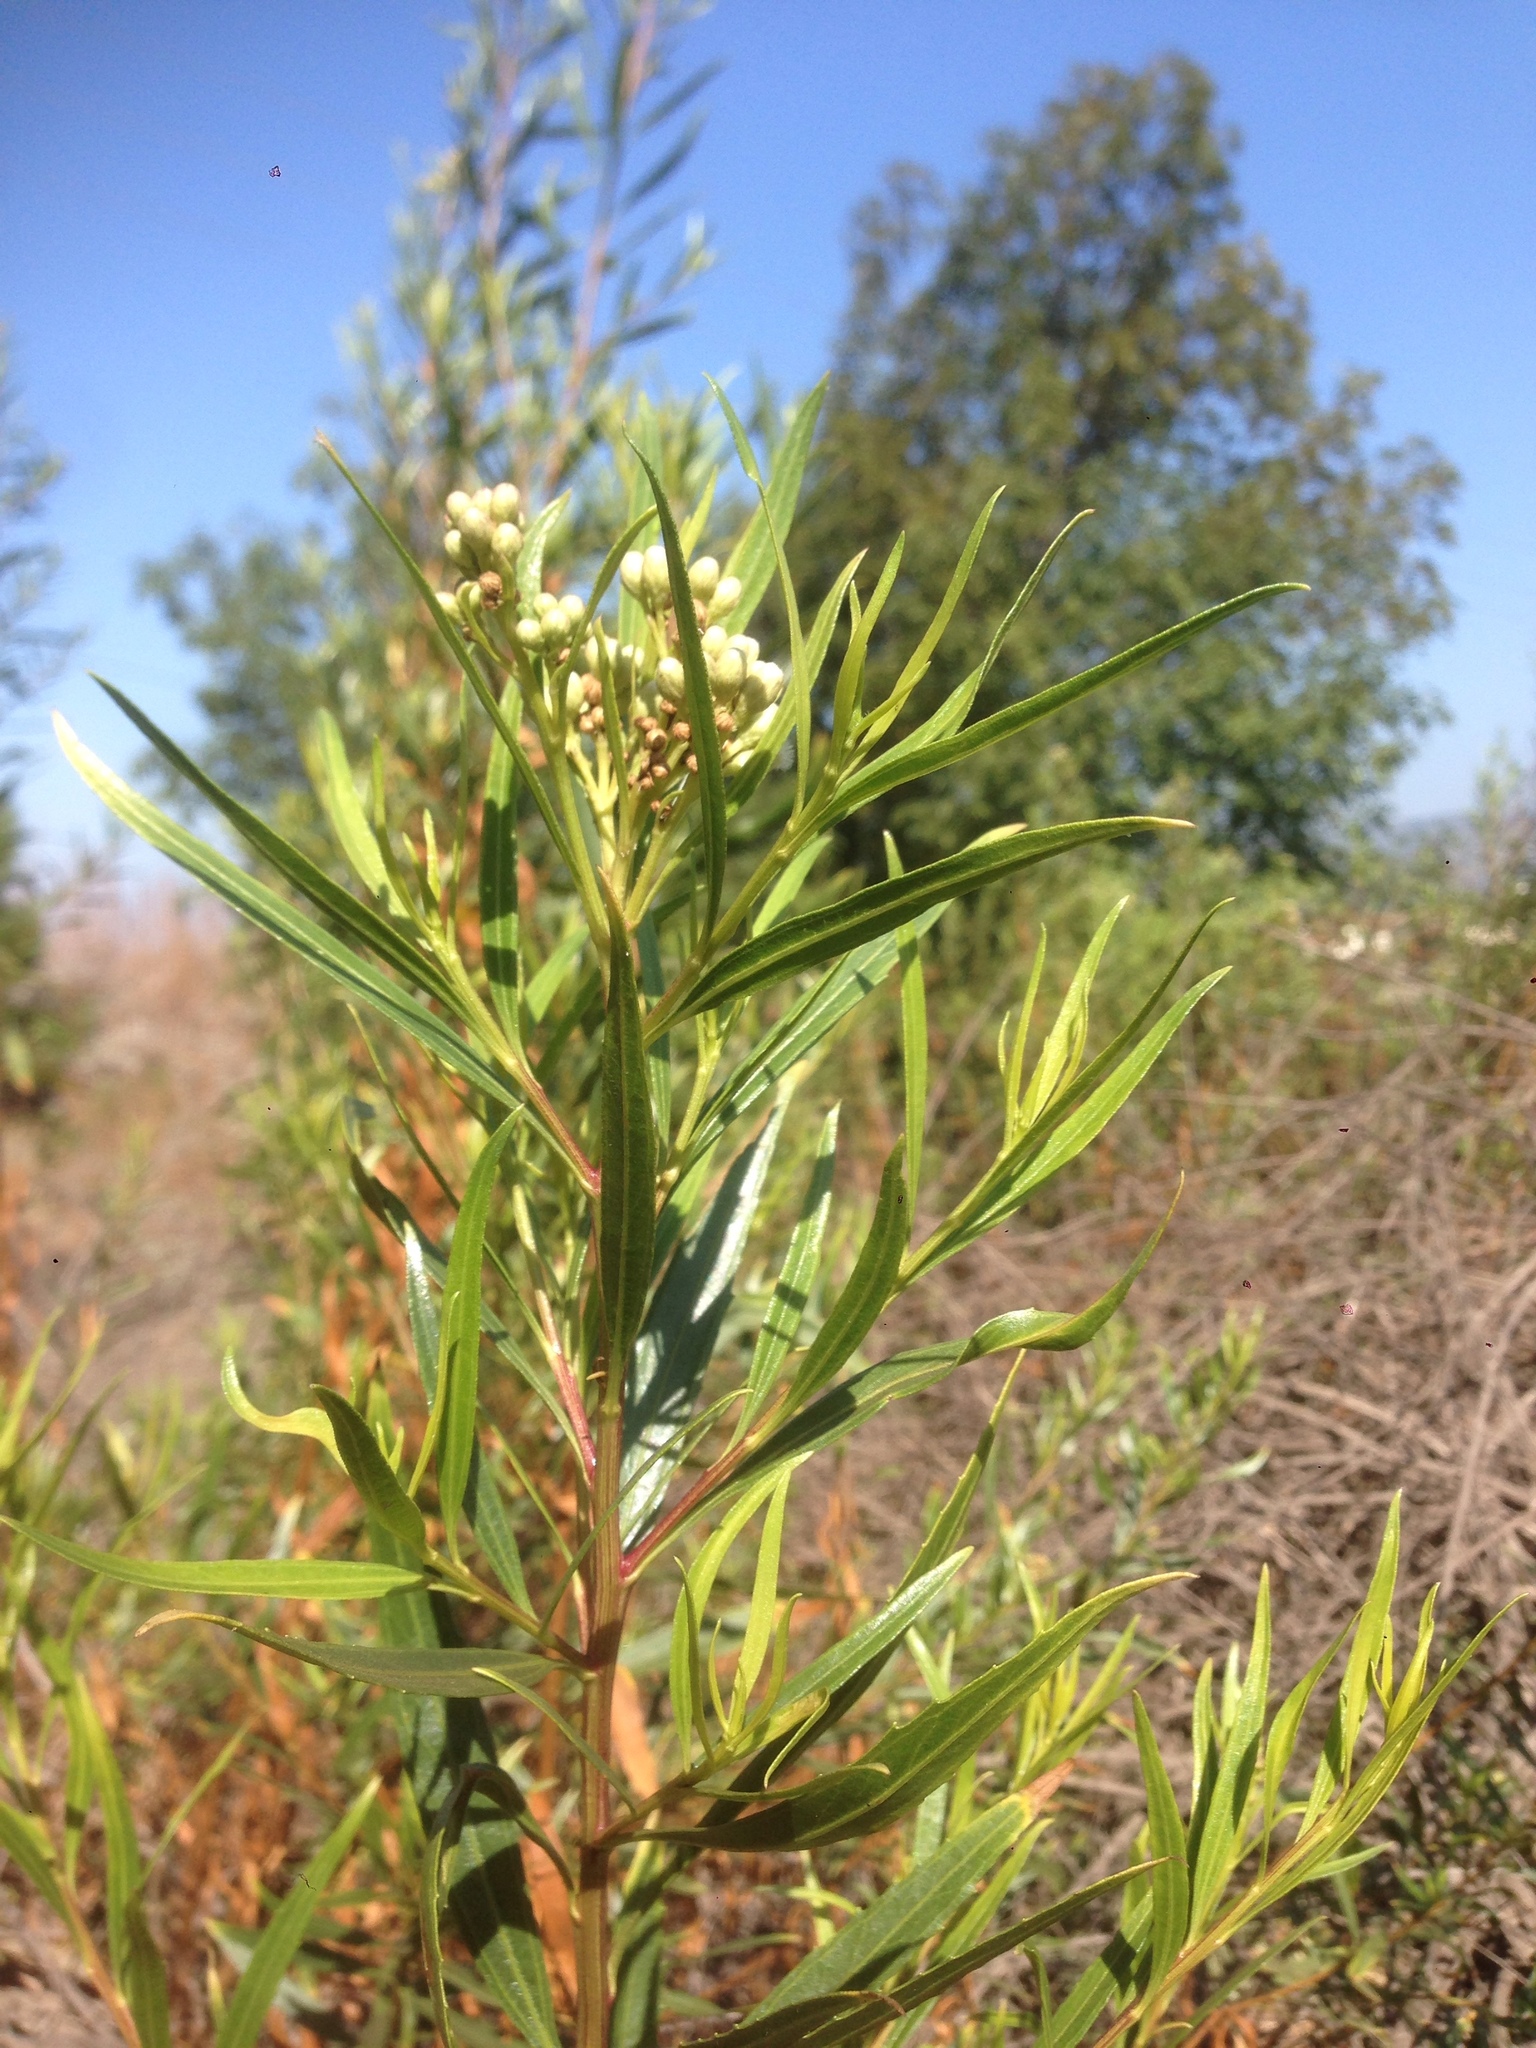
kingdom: Plantae
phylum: Tracheophyta
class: Magnoliopsida
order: Asterales
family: Asteraceae
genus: Baccharis
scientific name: Baccharis salicifolia
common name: Sticky baccharis
